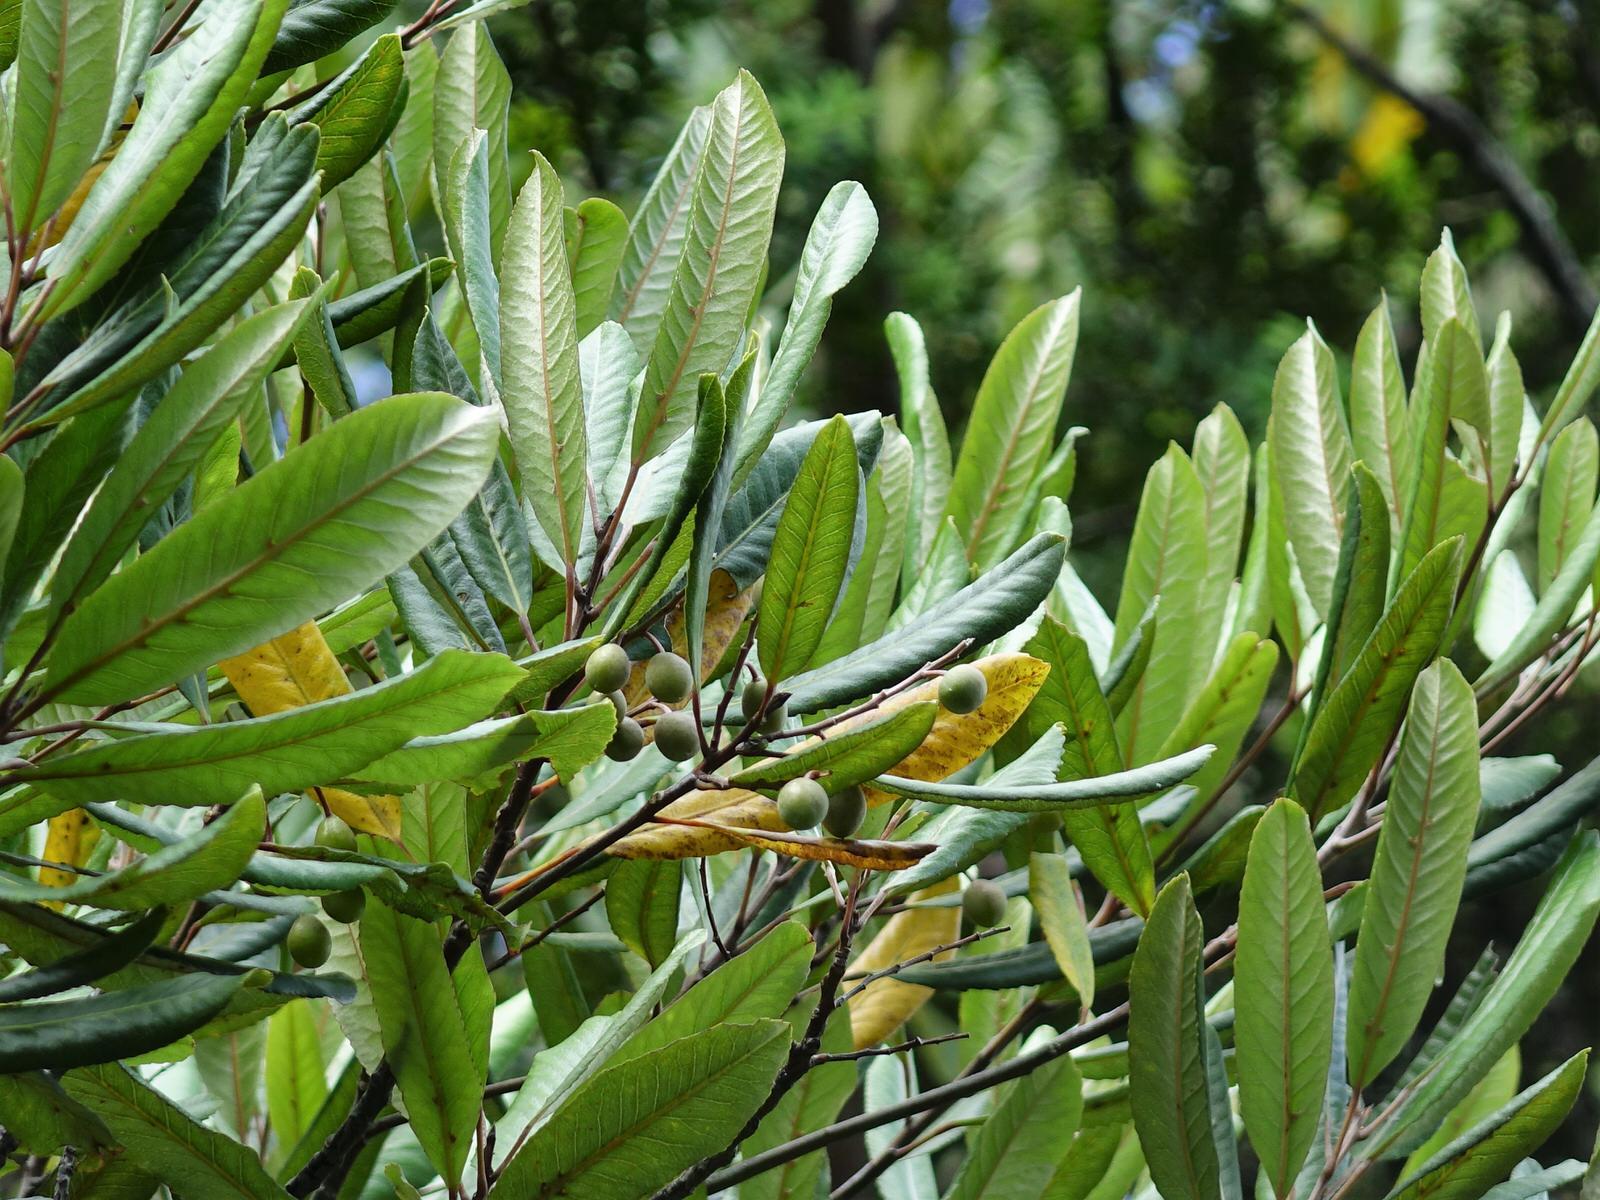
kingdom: Plantae
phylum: Tracheophyta
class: Magnoliopsida
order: Oxalidales
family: Elaeocarpaceae
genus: Elaeocarpus
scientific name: Elaeocarpus dentatus
